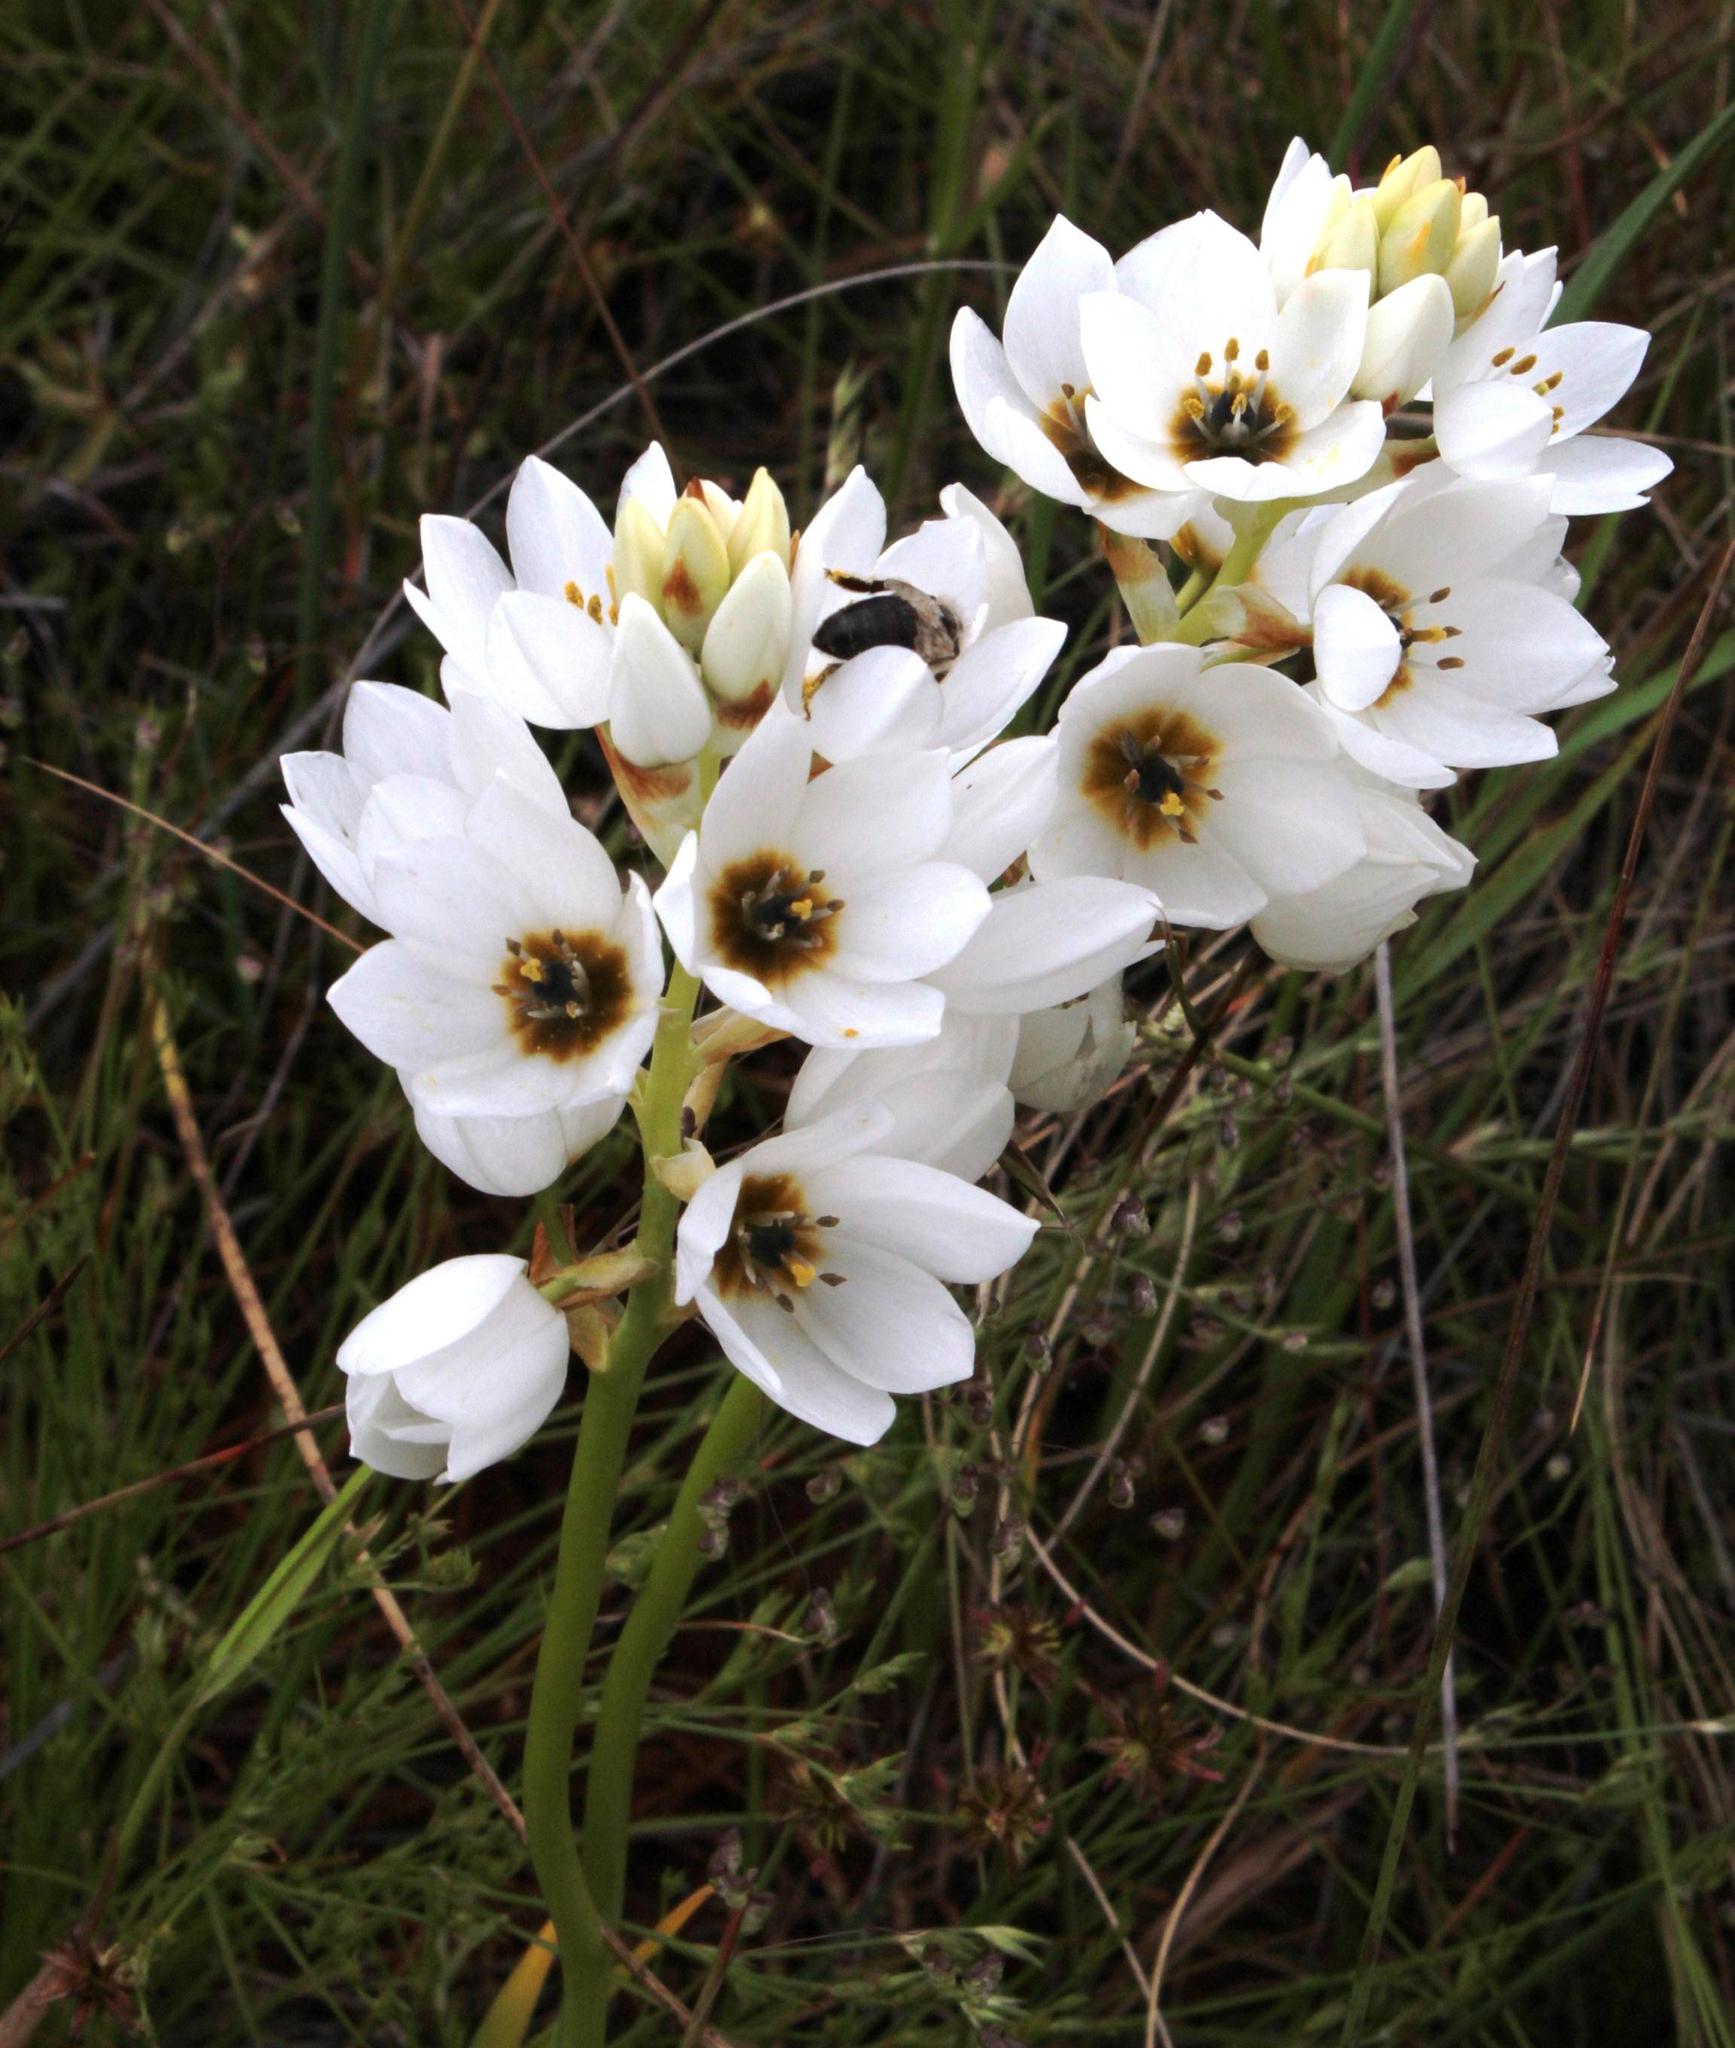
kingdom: Plantae
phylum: Tracheophyta
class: Liliopsida
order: Asparagales
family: Asparagaceae
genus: Ornithogalum
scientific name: Ornithogalum thyrsoides
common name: Chincherinchee
